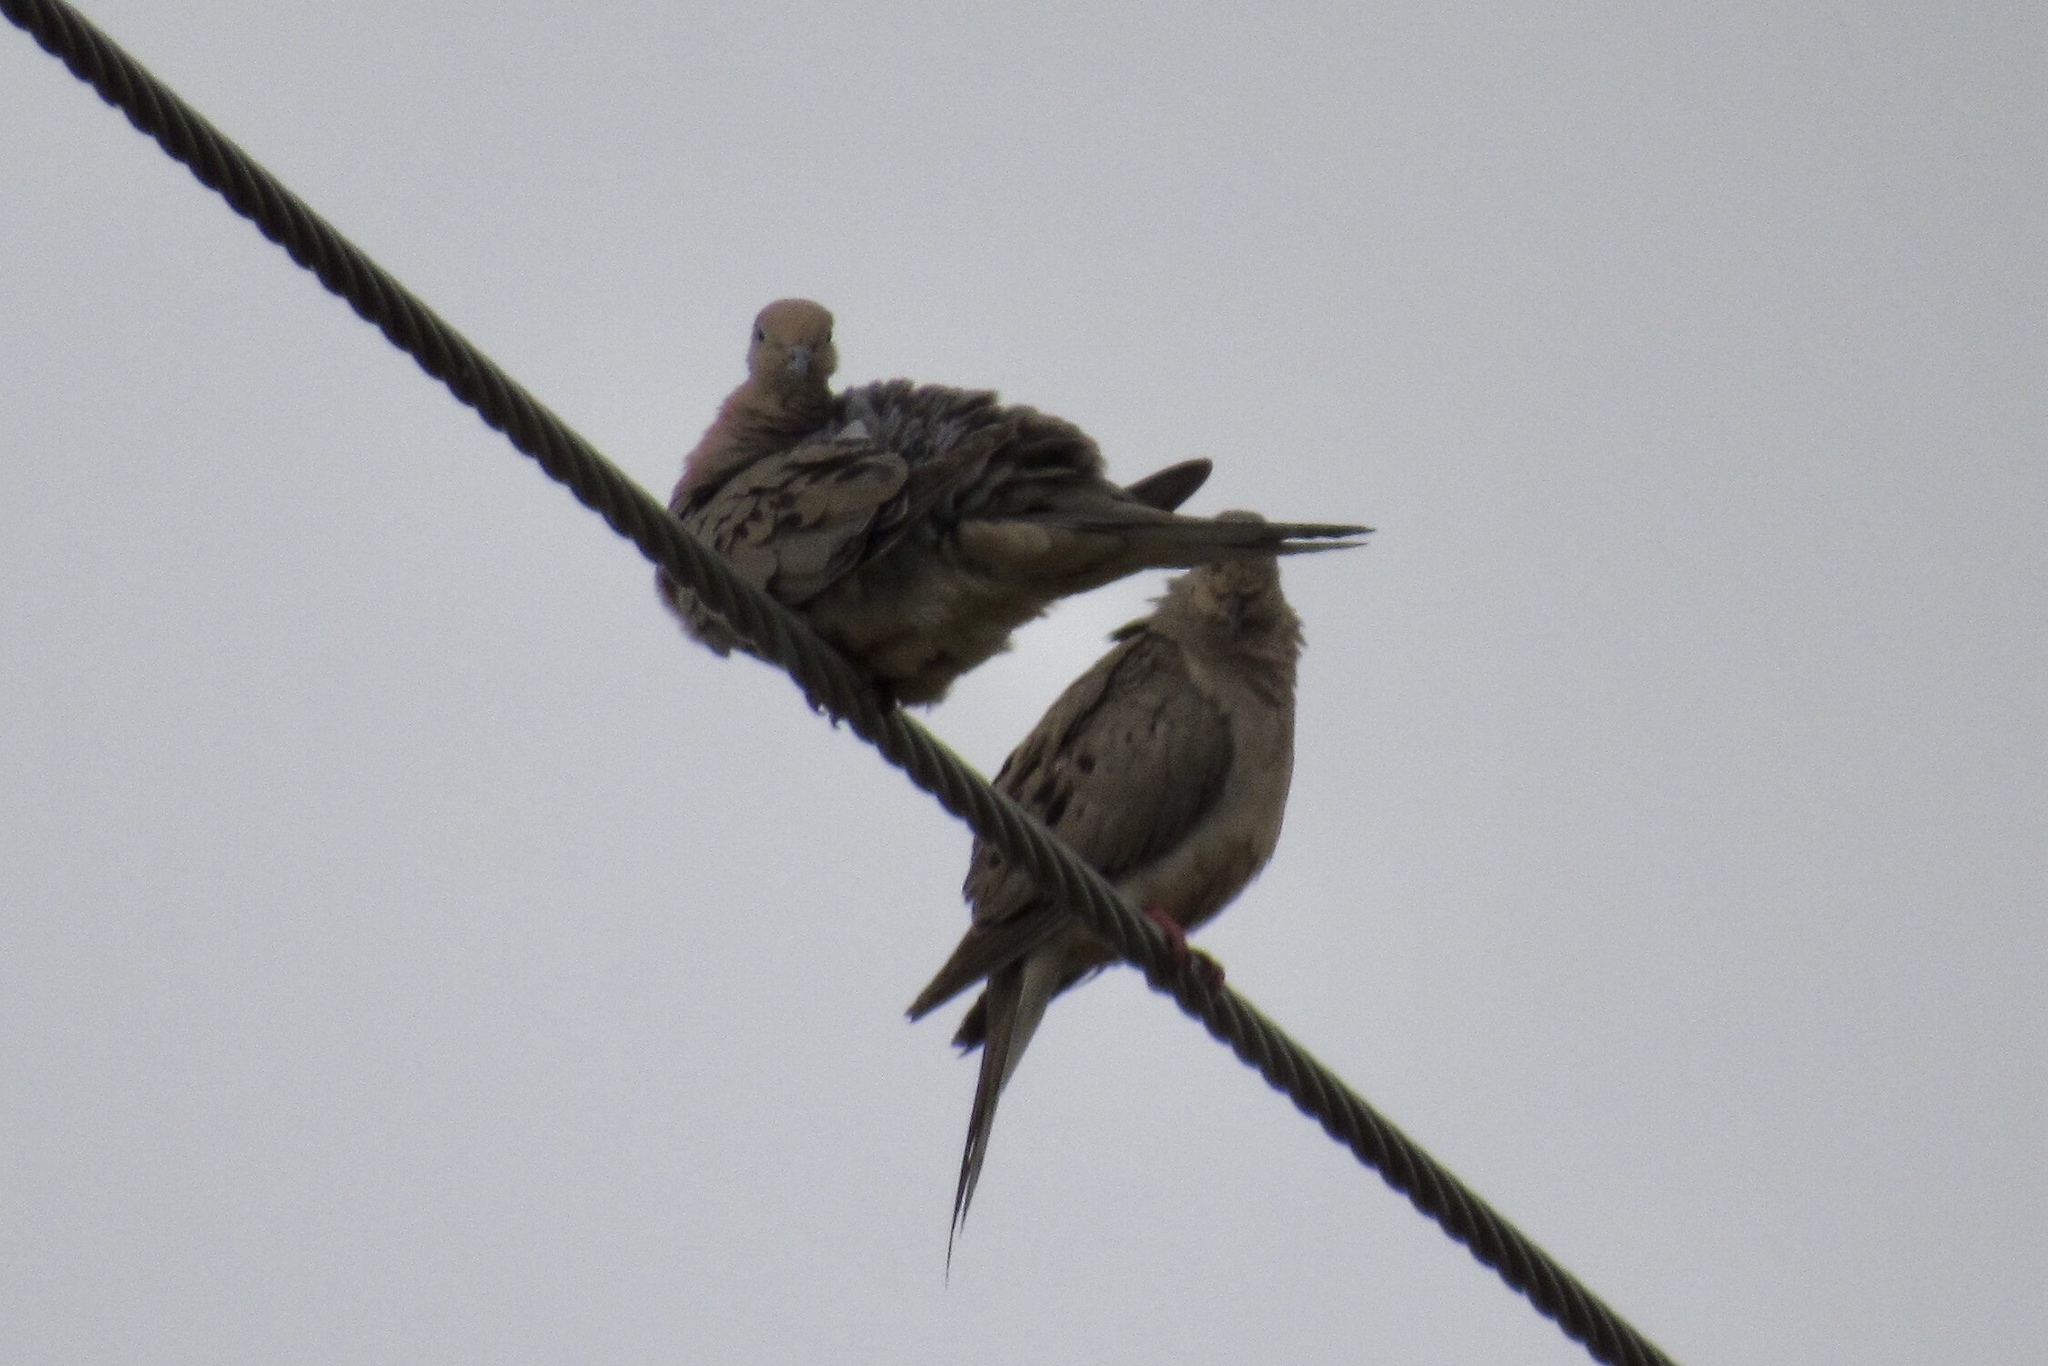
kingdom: Animalia
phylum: Chordata
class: Aves
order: Columbiformes
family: Columbidae
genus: Zenaida
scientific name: Zenaida macroura
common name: Mourning dove
